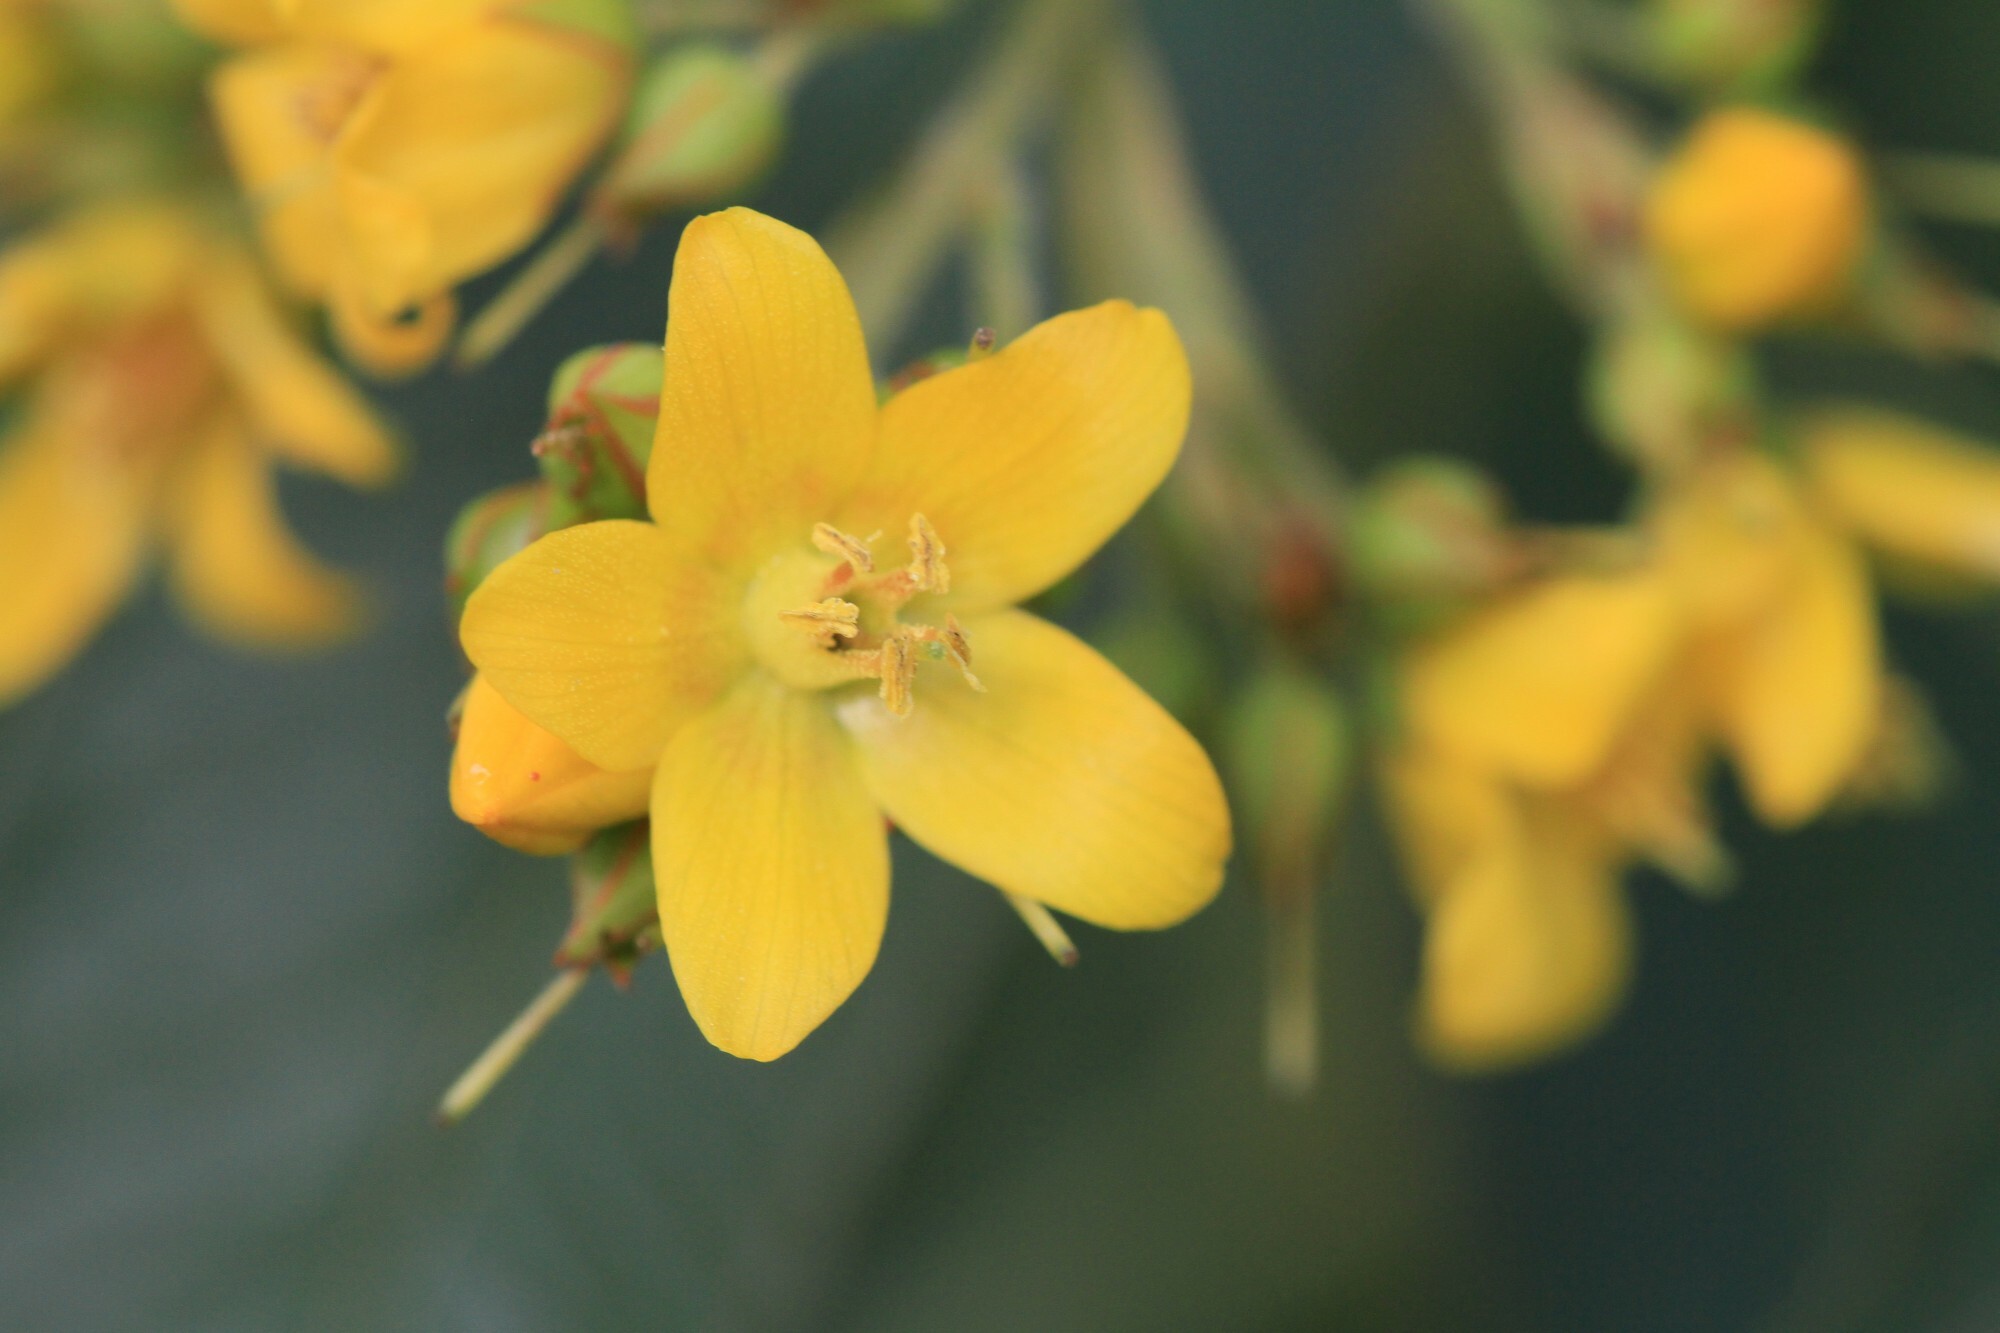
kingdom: Plantae
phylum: Tracheophyta
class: Magnoliopsida
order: Ericales
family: Primulaceae
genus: Lysimachia
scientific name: Lysimachia vulgaris
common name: Yellow loosestrife
